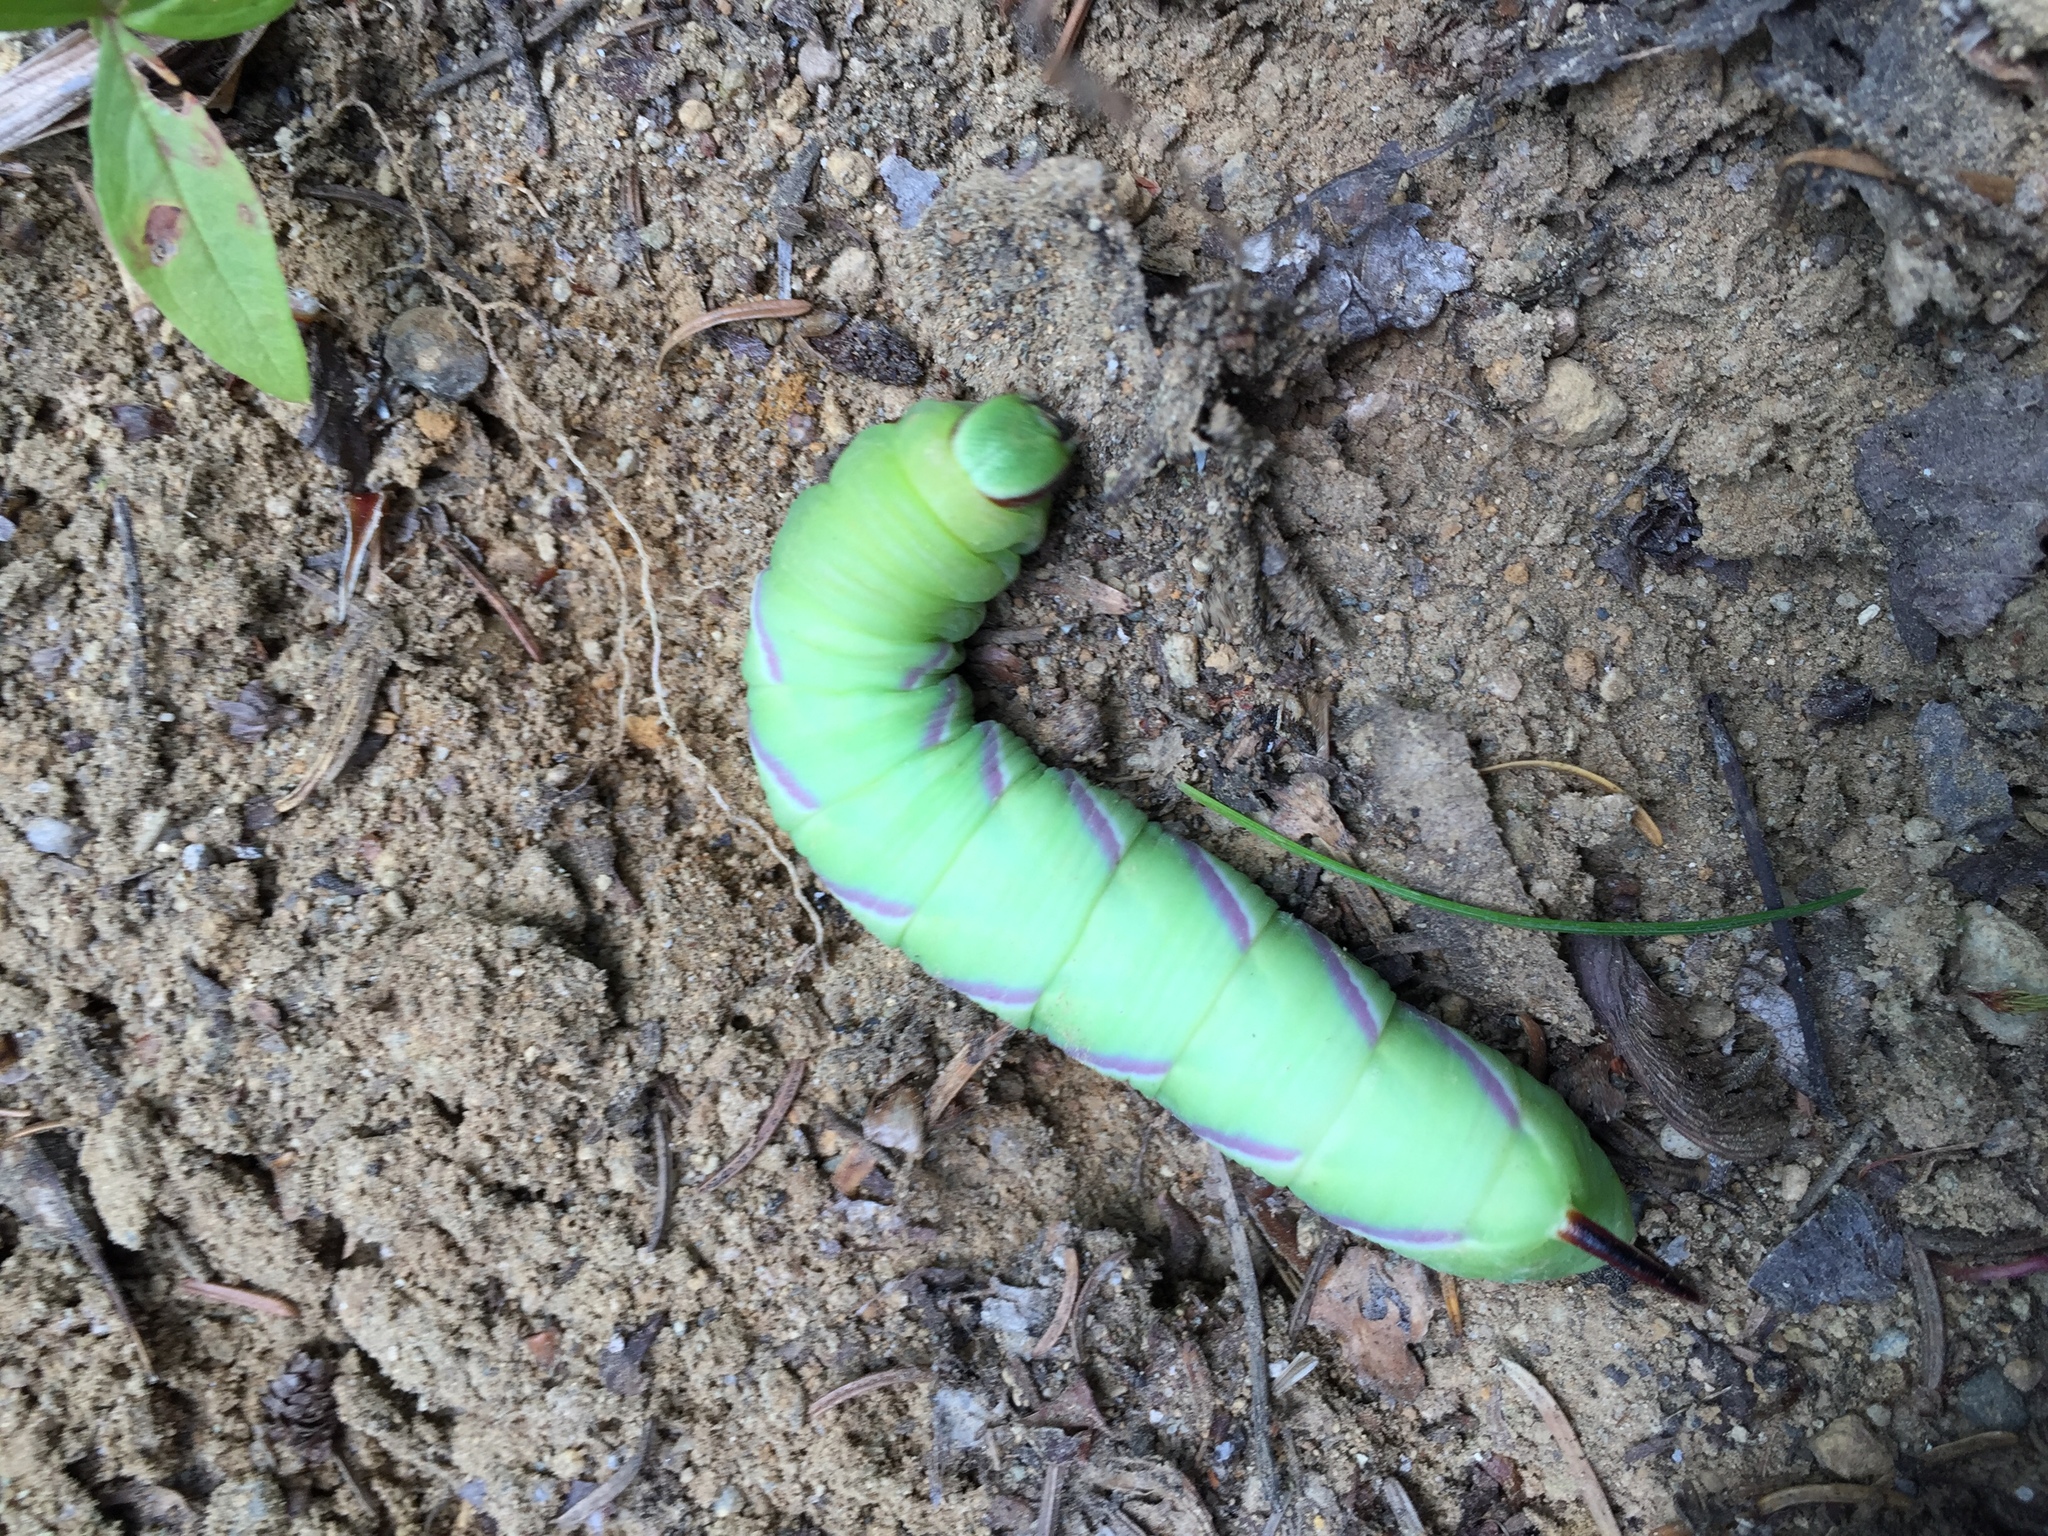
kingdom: Animalia
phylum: Arthropoda
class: Insecta
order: Lepidoptera
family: Sphingidae
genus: Sphinx
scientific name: Sphinx drupiferarum
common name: Wild cherry sphinx
